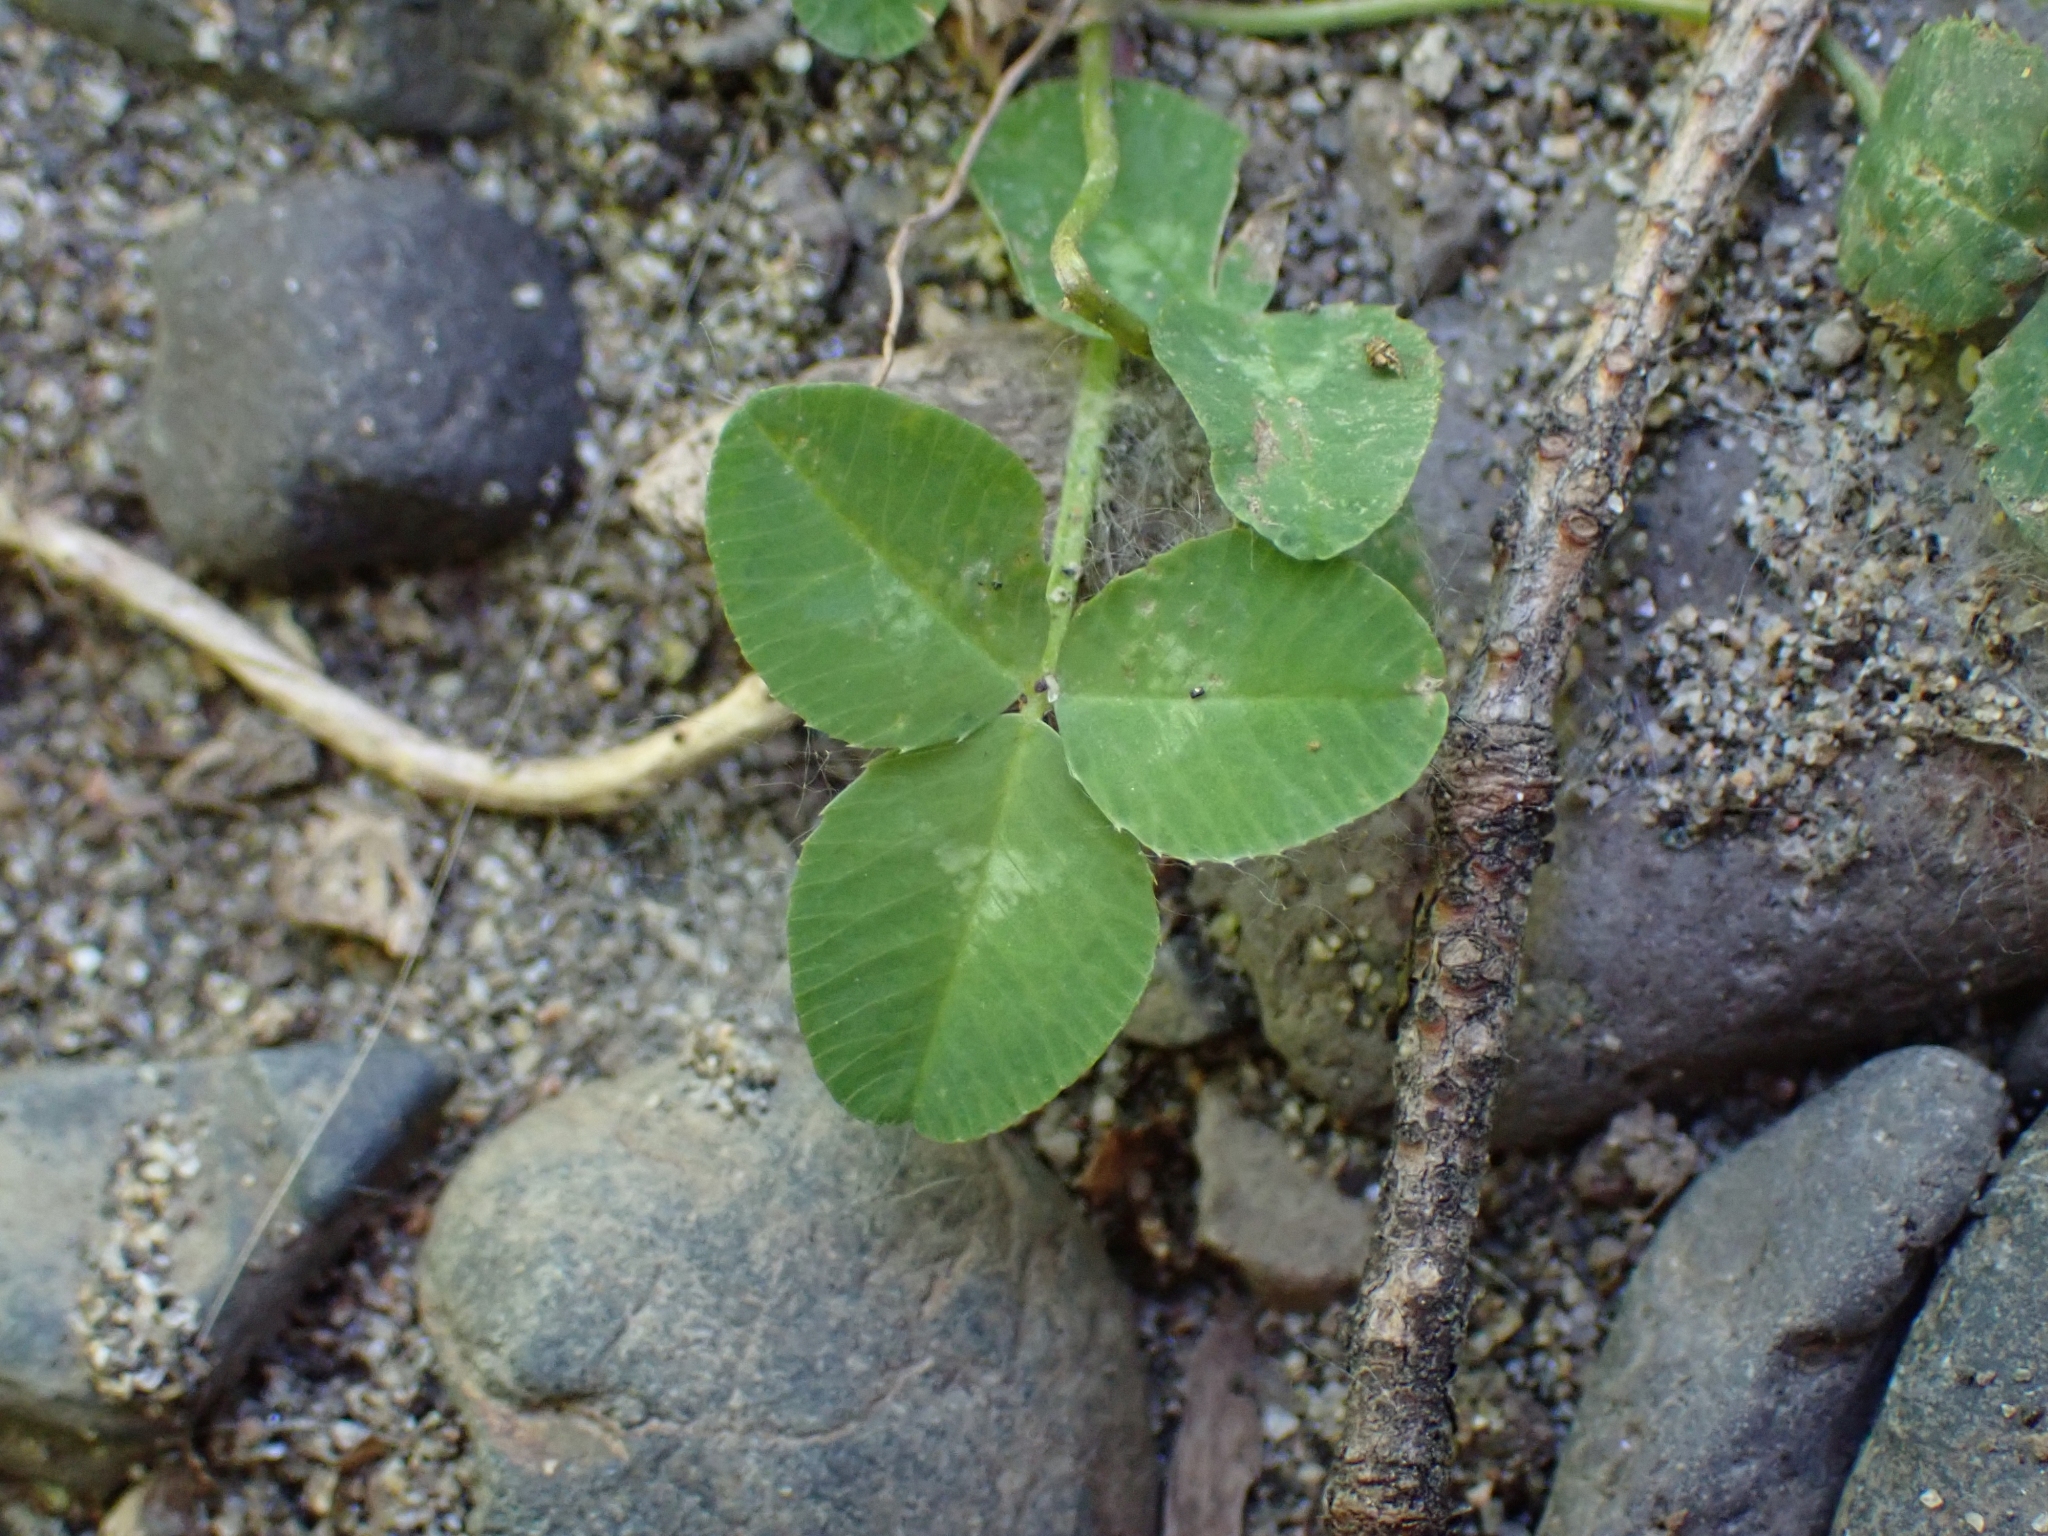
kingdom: Plantae
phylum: Tracheophyta
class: Magnoliopsida
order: Fabales
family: Fabaceae
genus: Trifolium
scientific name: Trifolium repens
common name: White clover
